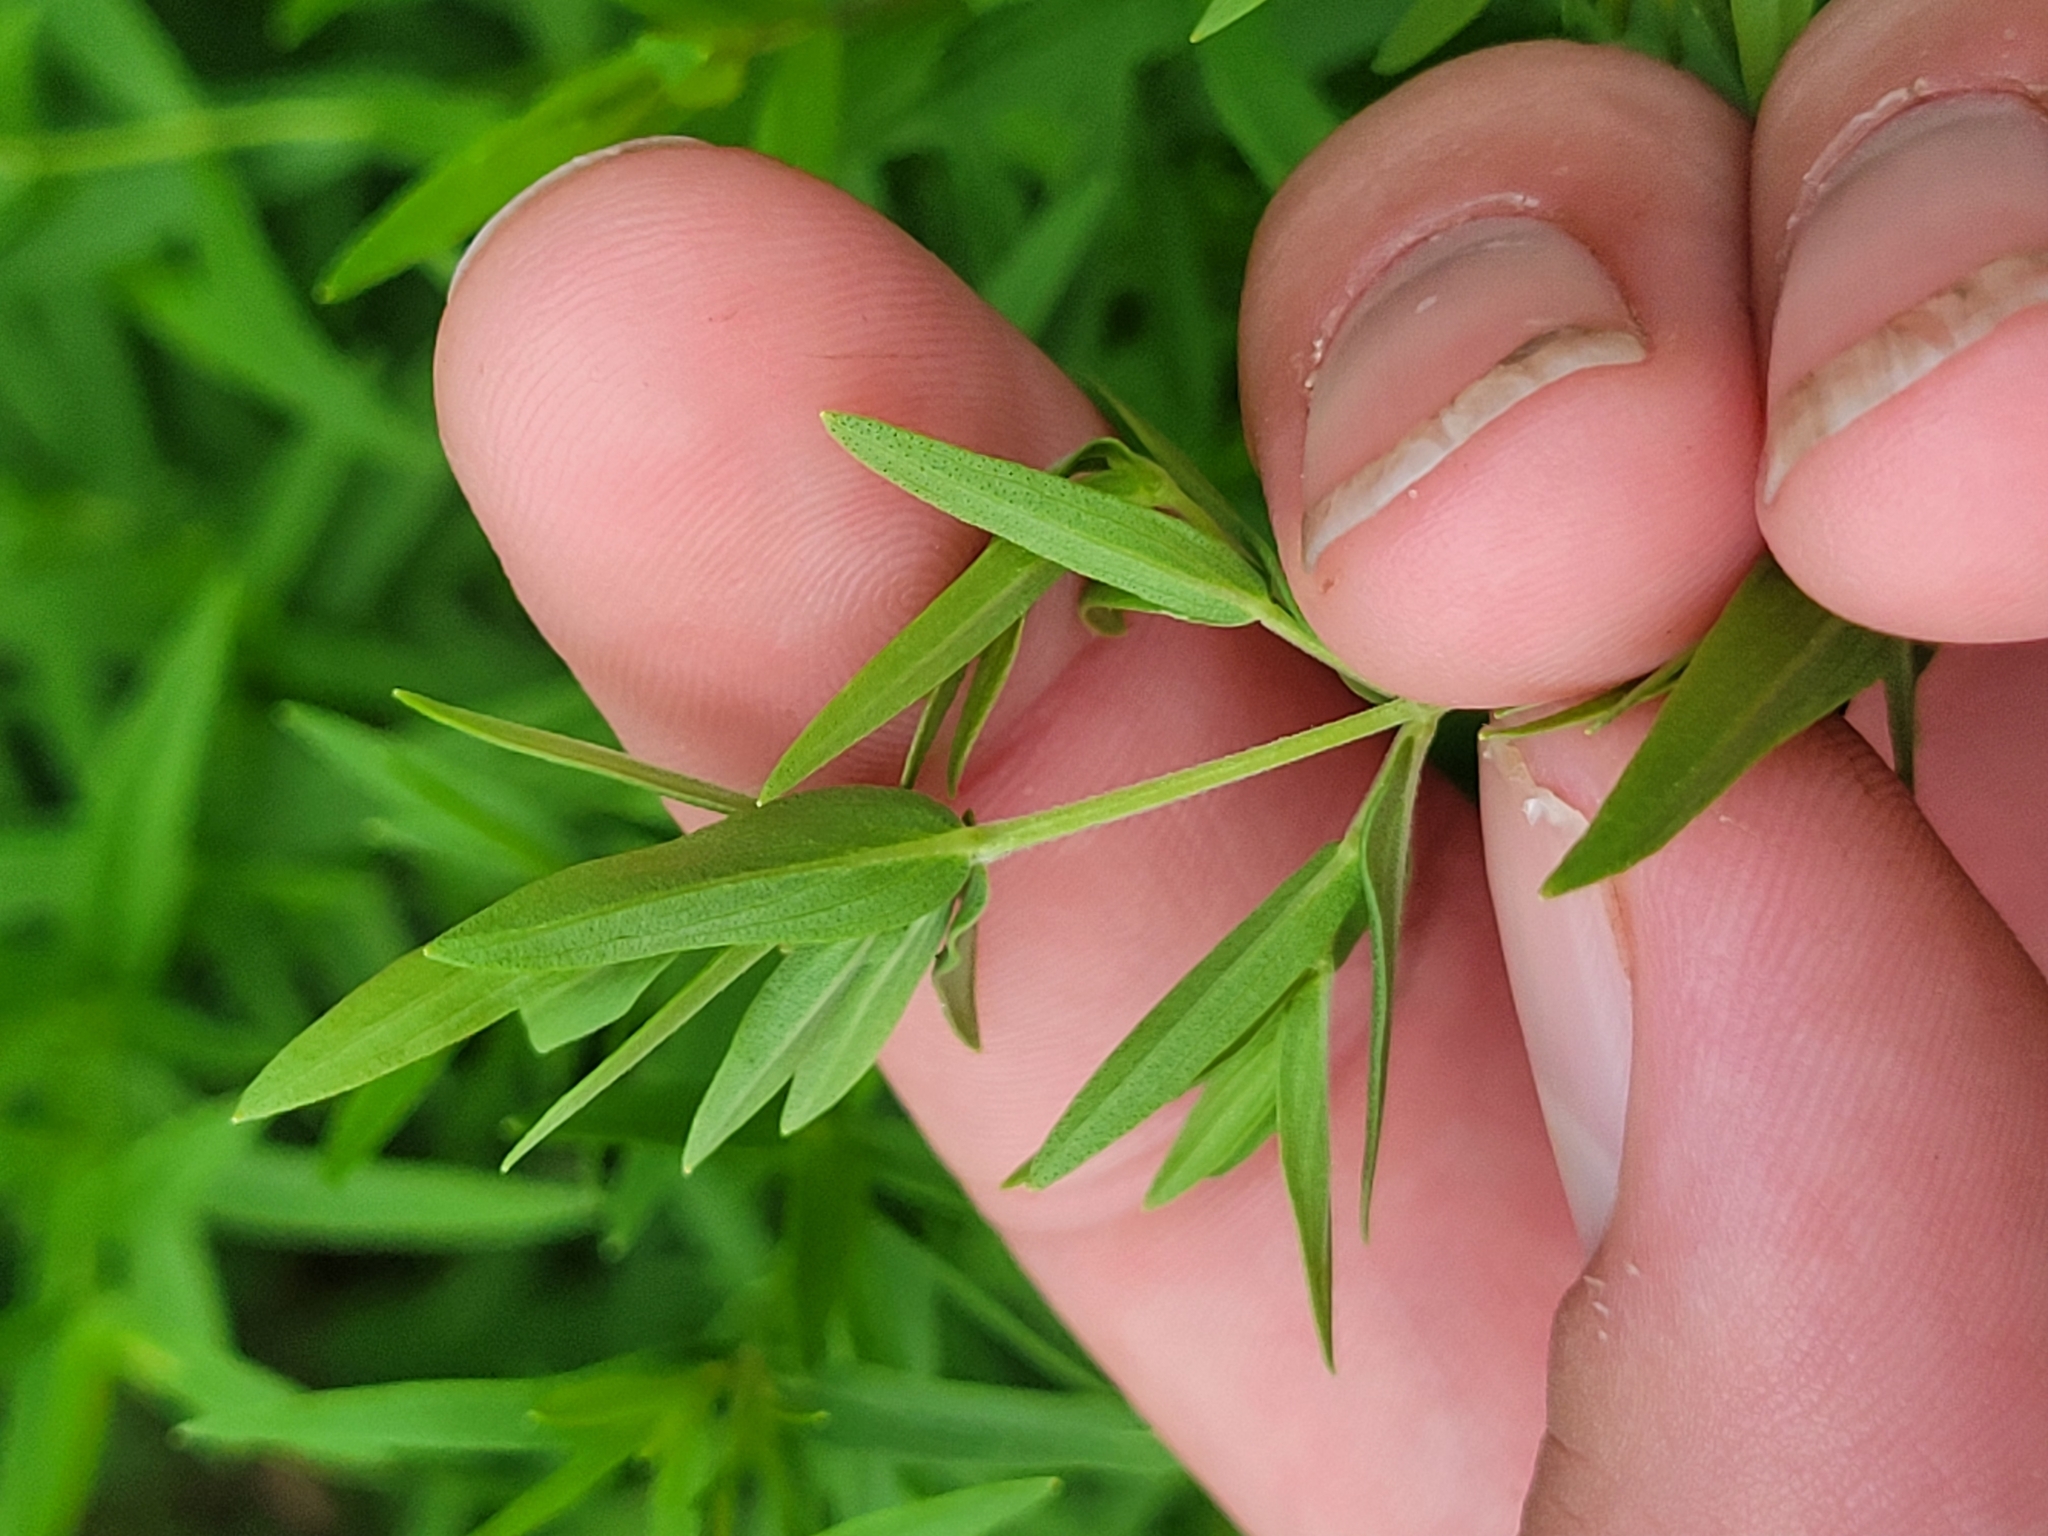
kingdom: Plantae
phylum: Tracheophyta
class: Magnoliopsida
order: Lamiales
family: Lamiaceae
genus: Pycnanthemum
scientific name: Pycnanthemum virginianum
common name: Virginia mountain-mint
